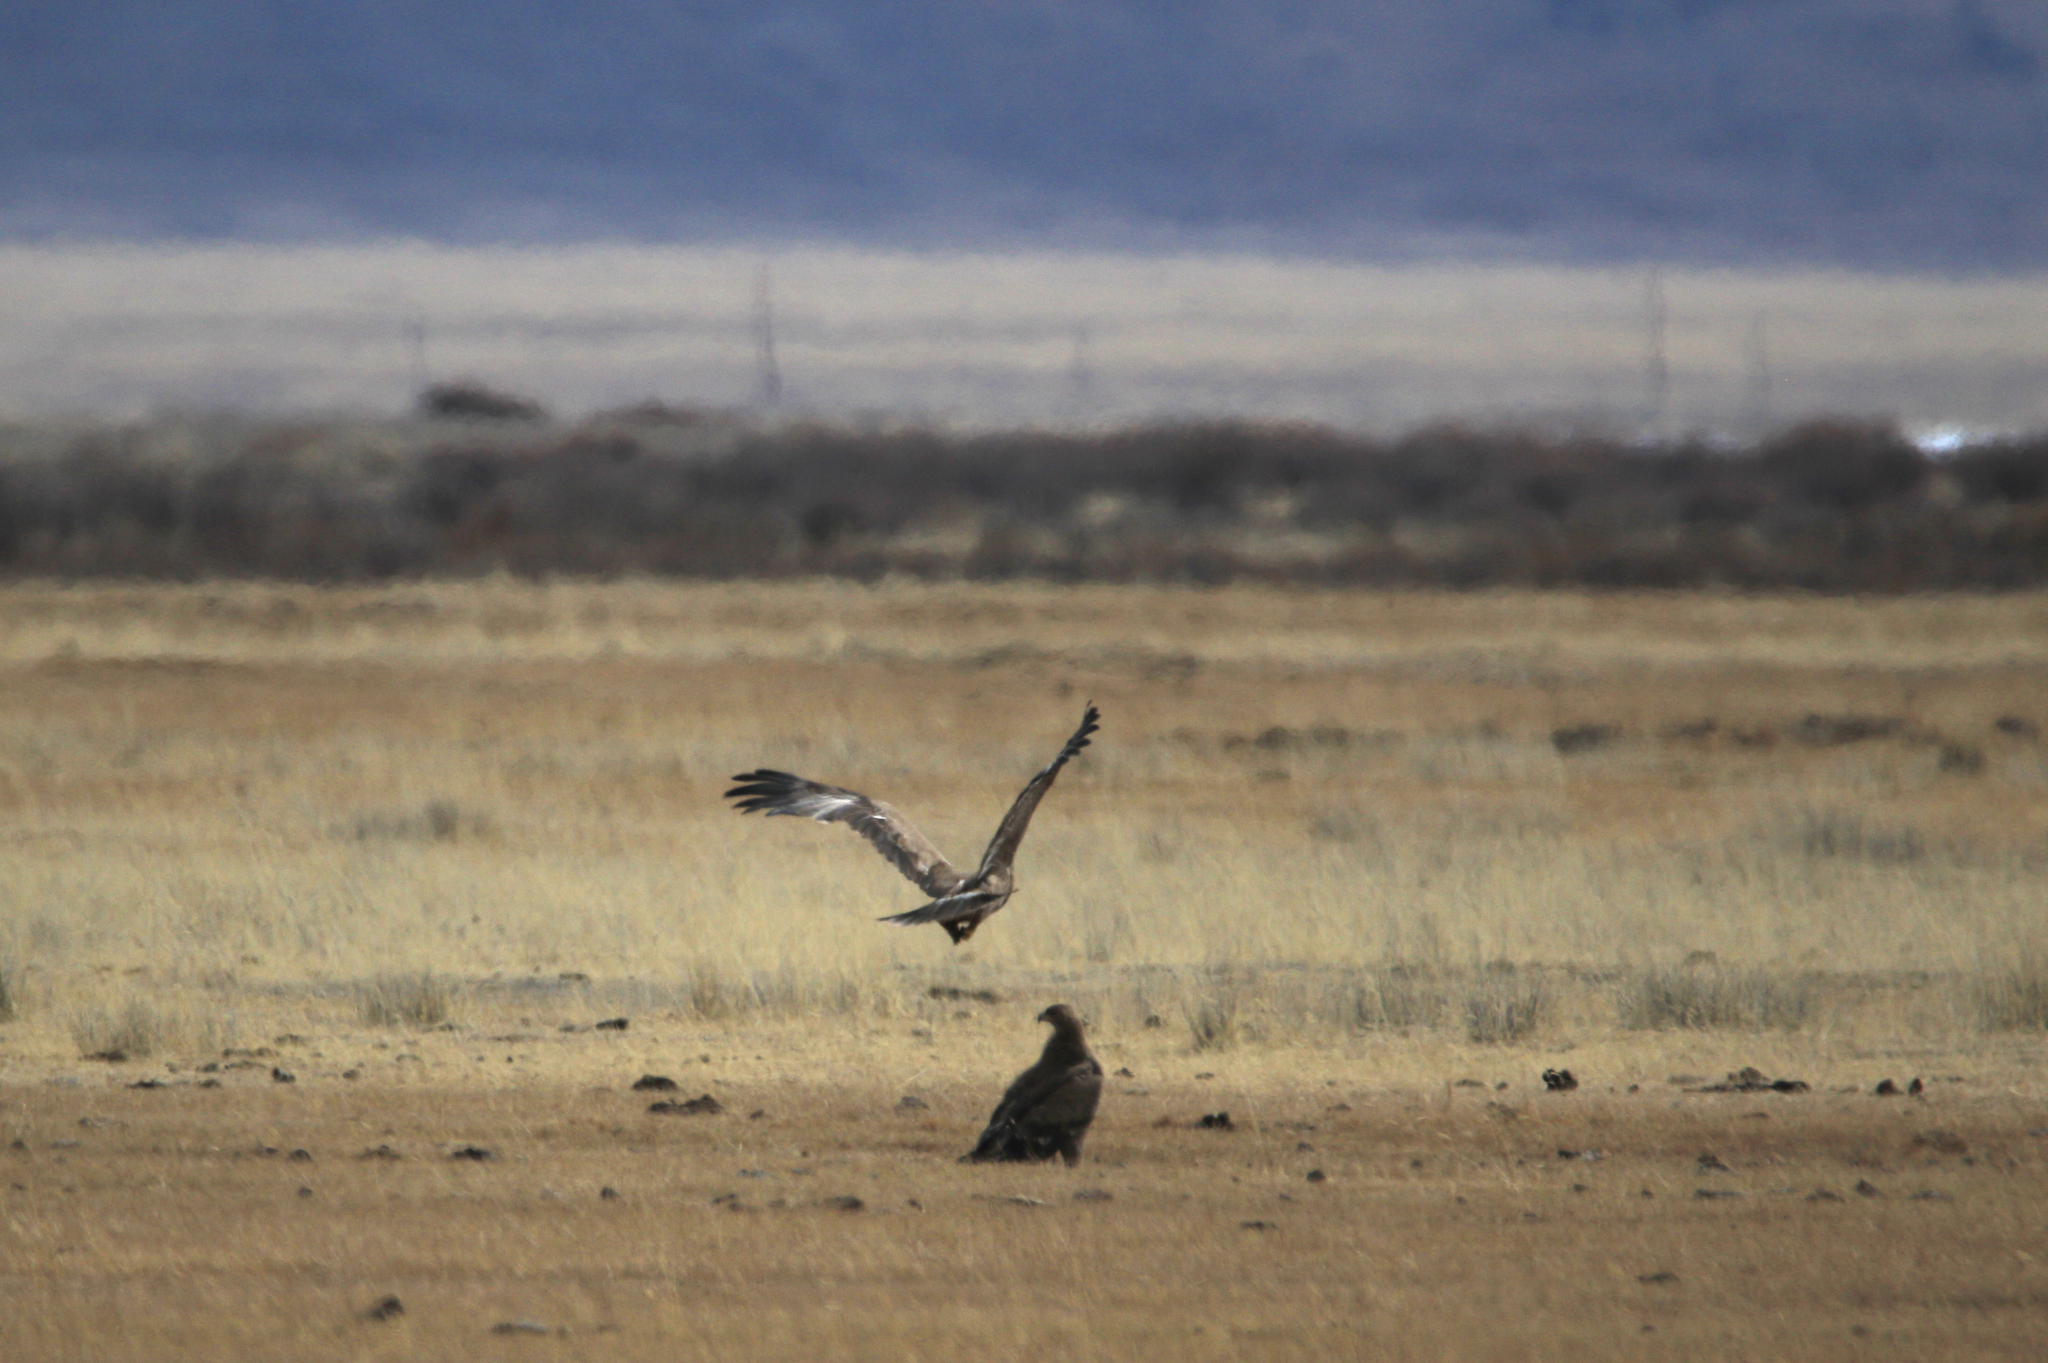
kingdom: Animalia
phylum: Chordata
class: Aves
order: Accipitriformes
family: Accipitridae
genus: Aquila
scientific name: Aquila nipalensis
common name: Steppe eagle
